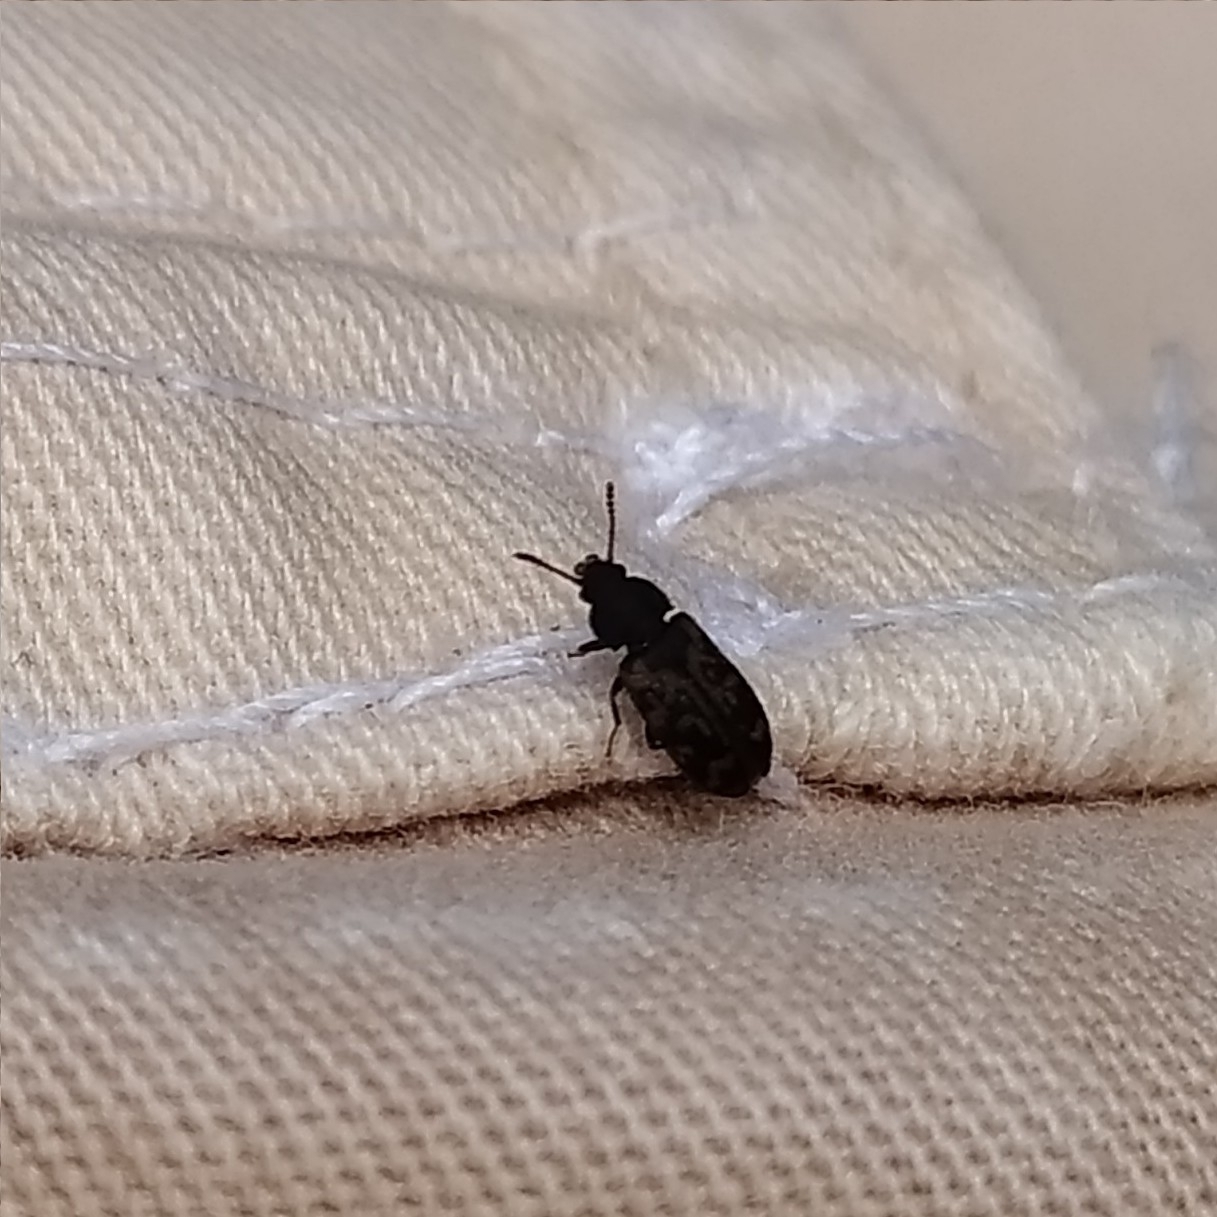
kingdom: Animalia
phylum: Arthropoda
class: Insecta
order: Coleoptera
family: Mycetophagidae
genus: Mycetophagus
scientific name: Mycetophagus tschitscherini
